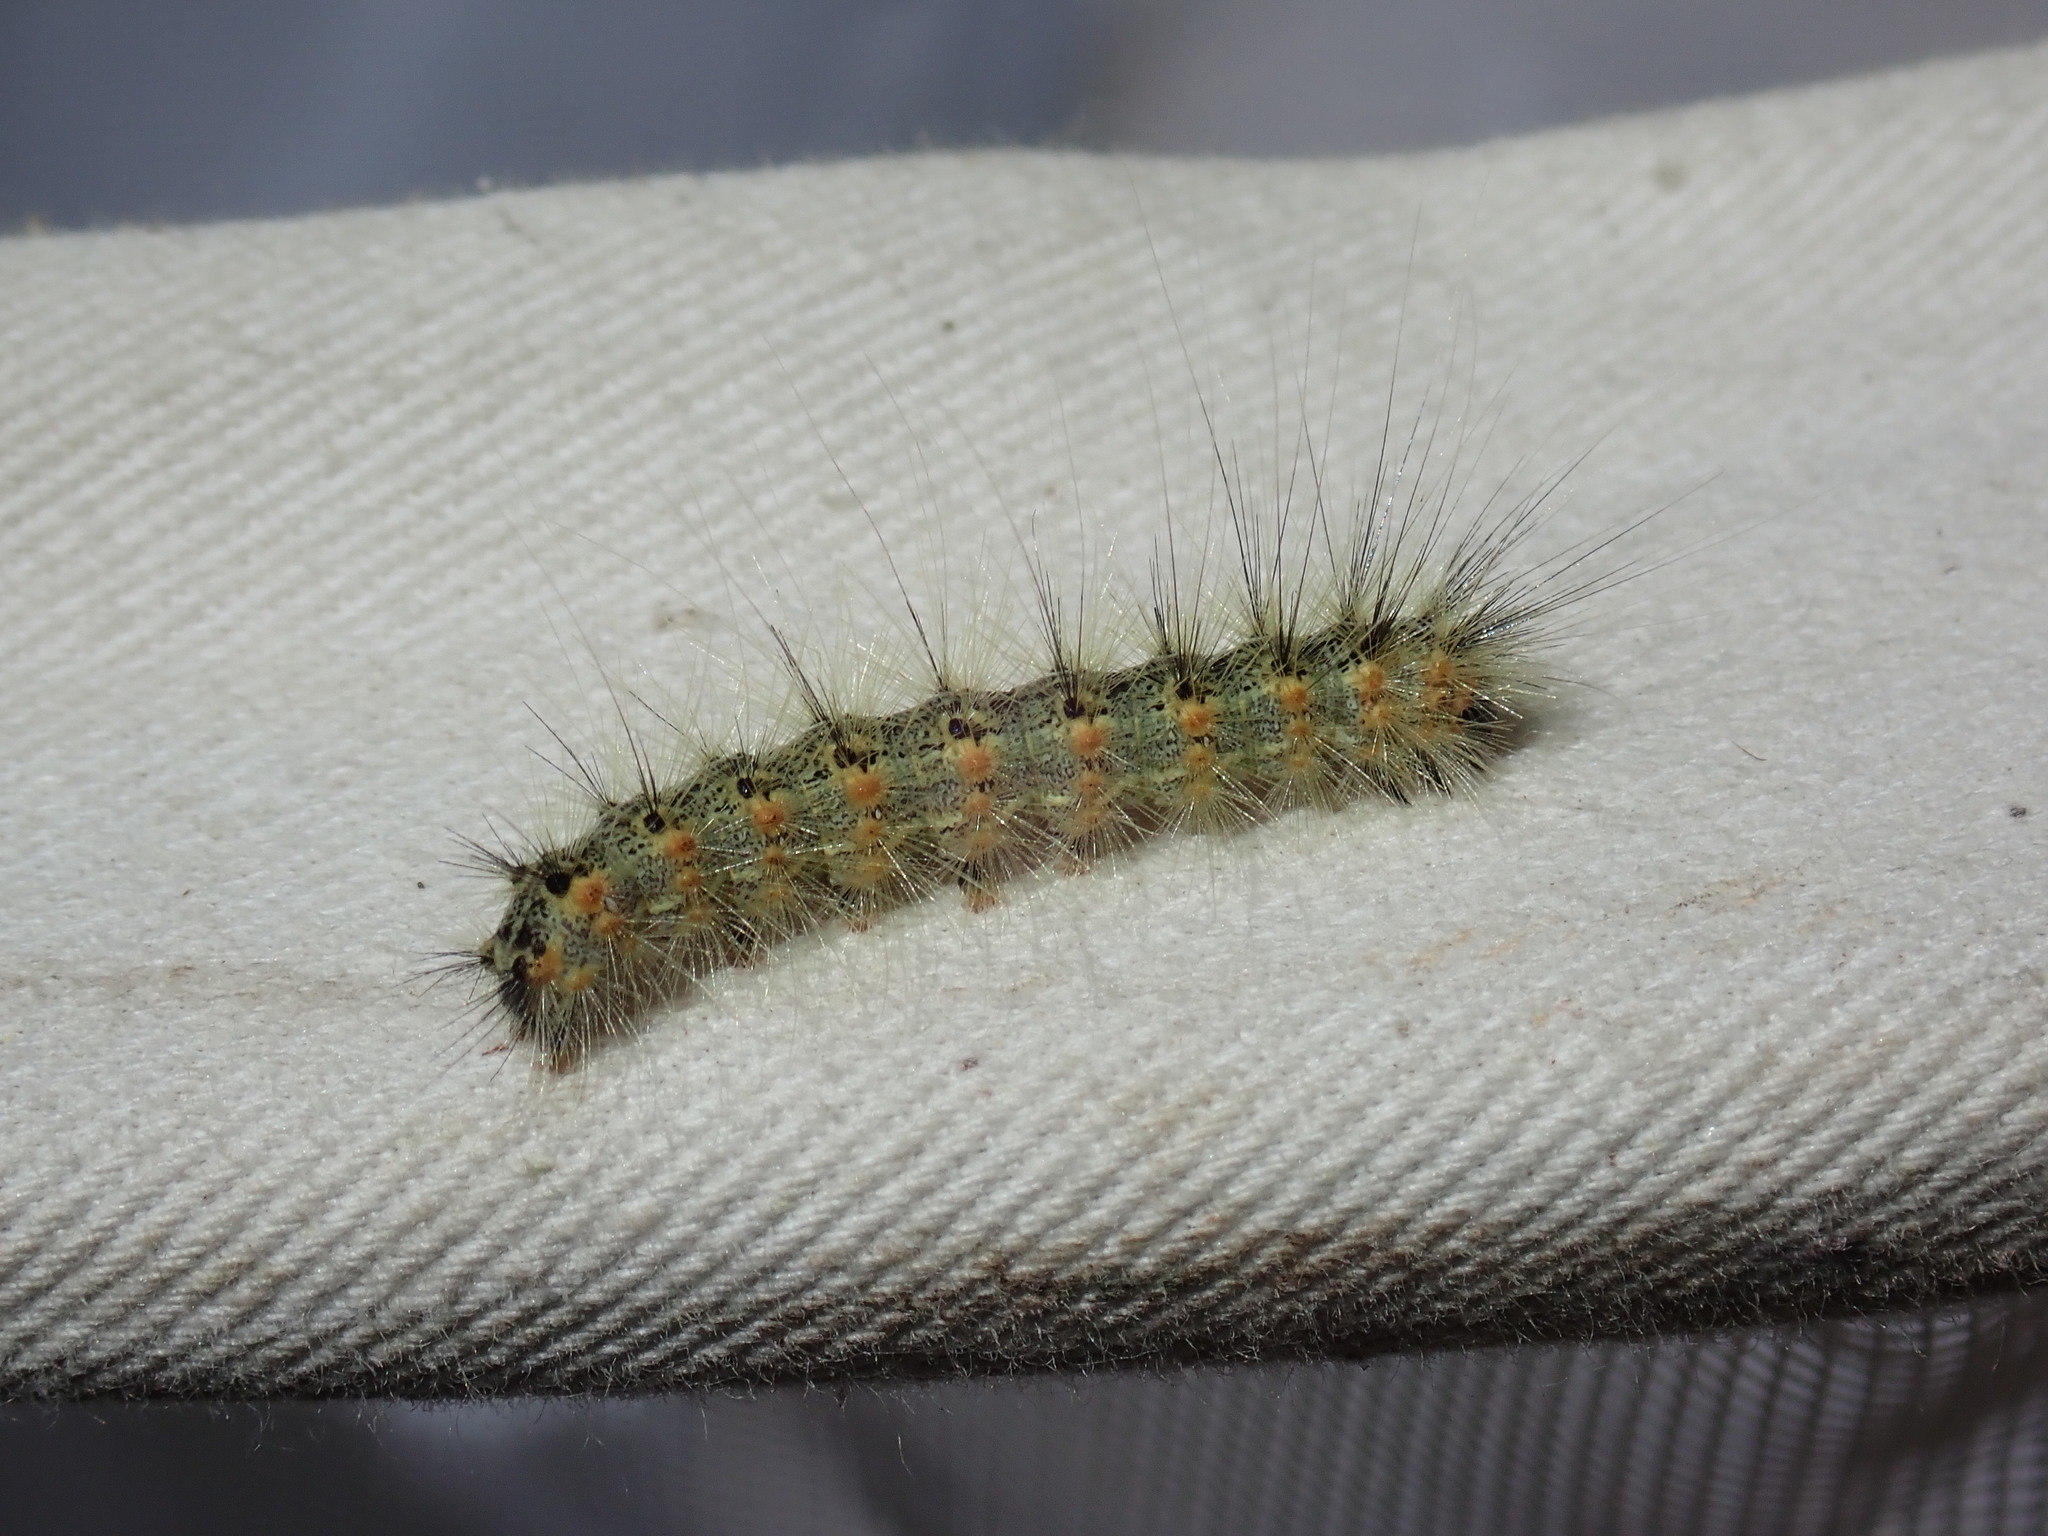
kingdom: Animalia
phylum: Arthropoda
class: Insecta
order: Lepidoptera
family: Erebidae
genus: Hyphantria
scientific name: Hyphantria cunea
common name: American white moth
